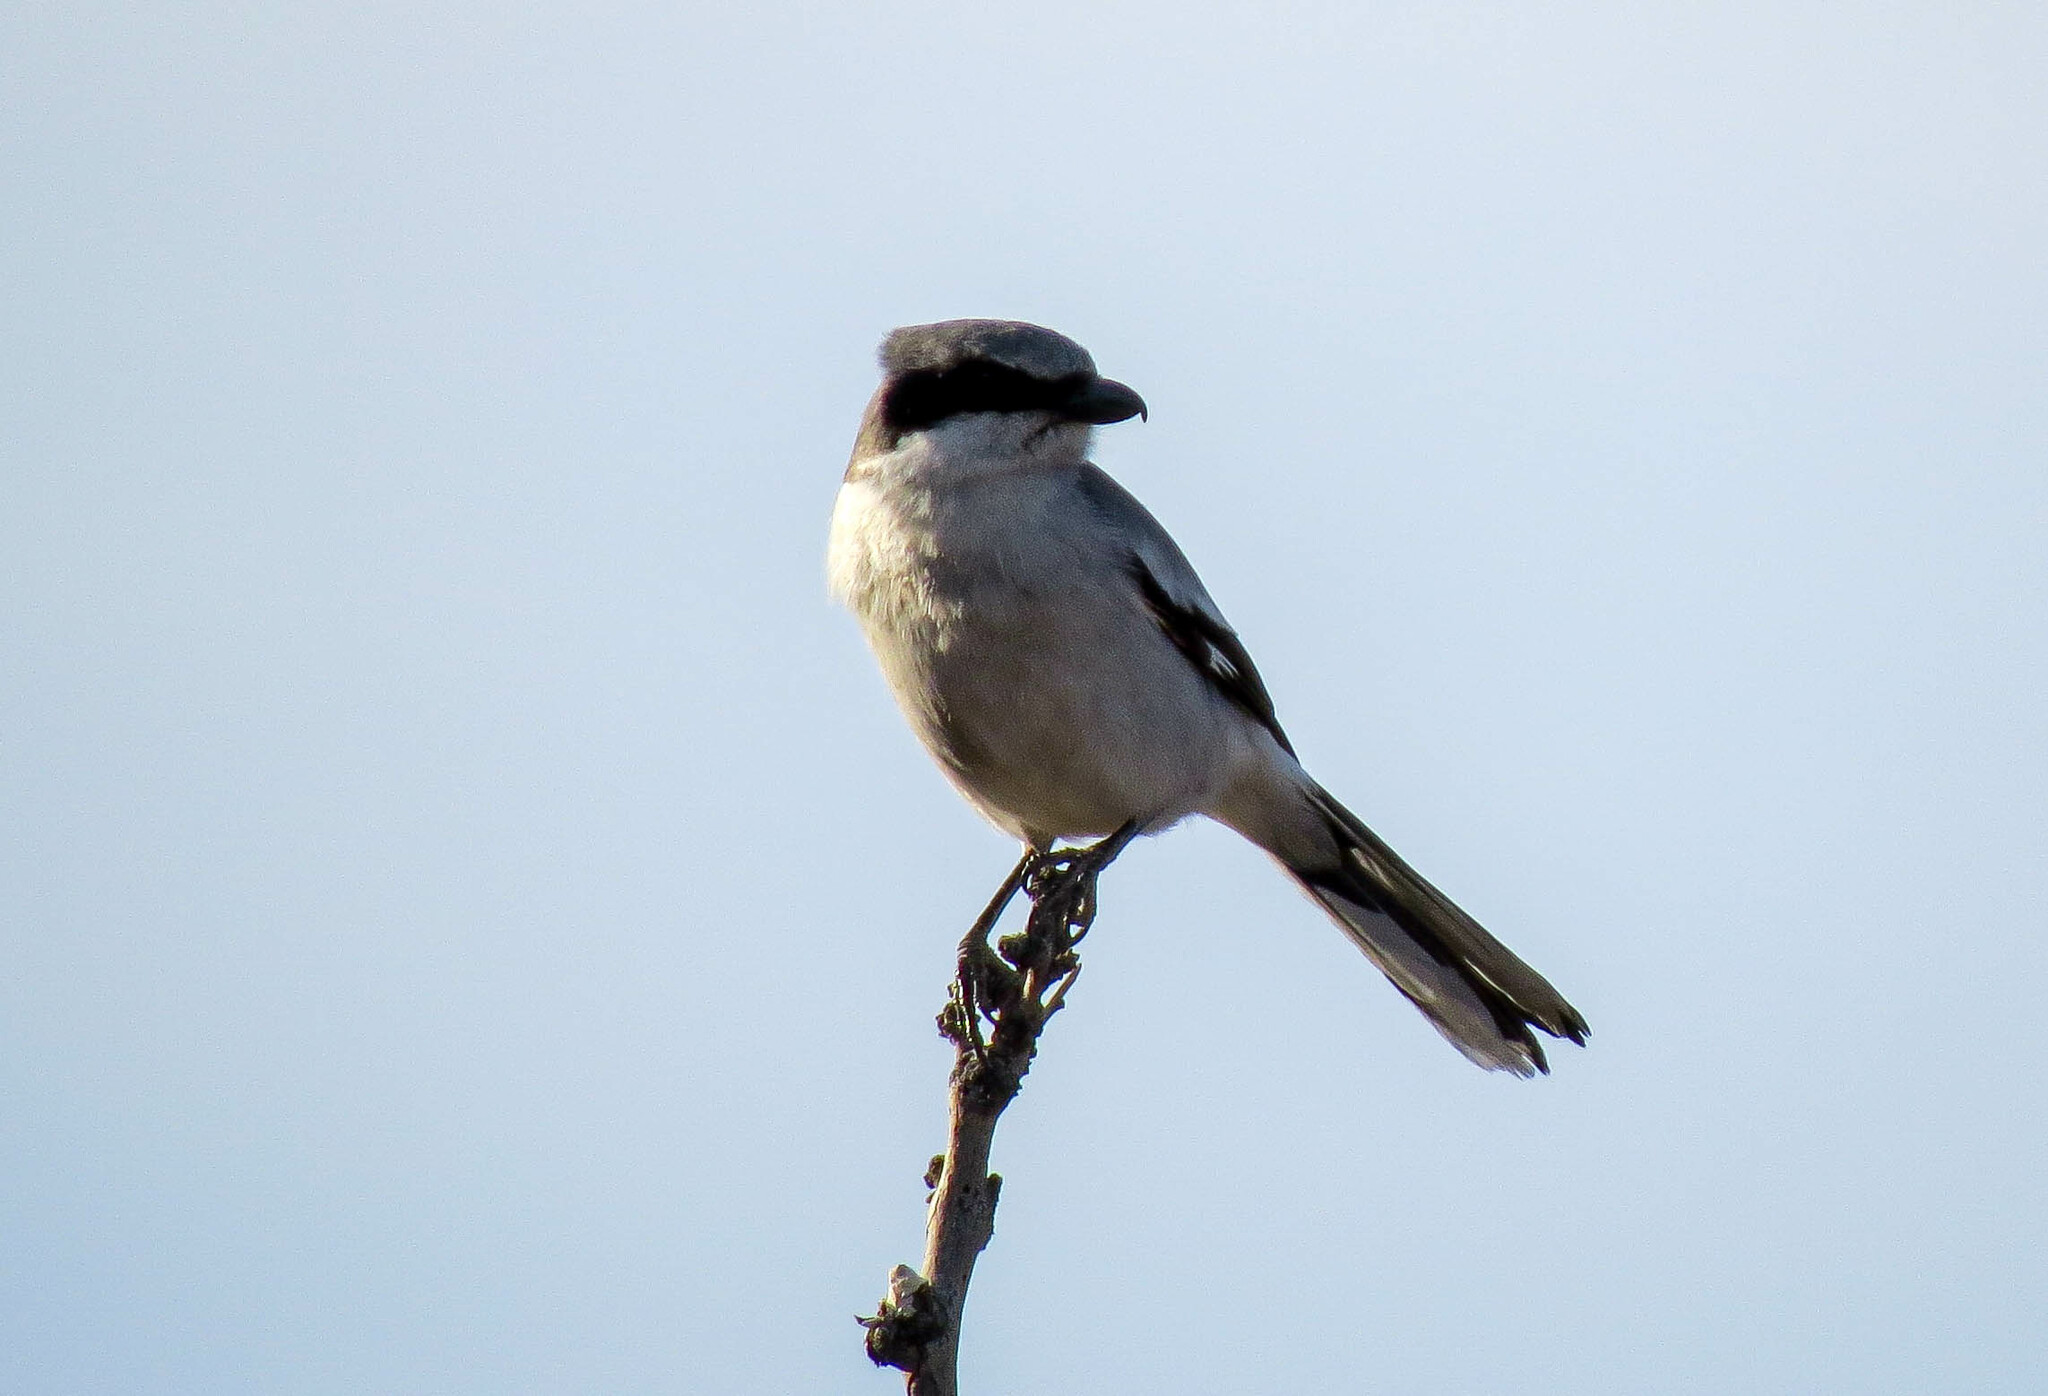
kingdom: Animalia
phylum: Chordata
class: Aves
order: Passeriformes
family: Laniidae
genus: Lanius
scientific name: Lanius ludovicianus
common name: Loggerhead shrike
